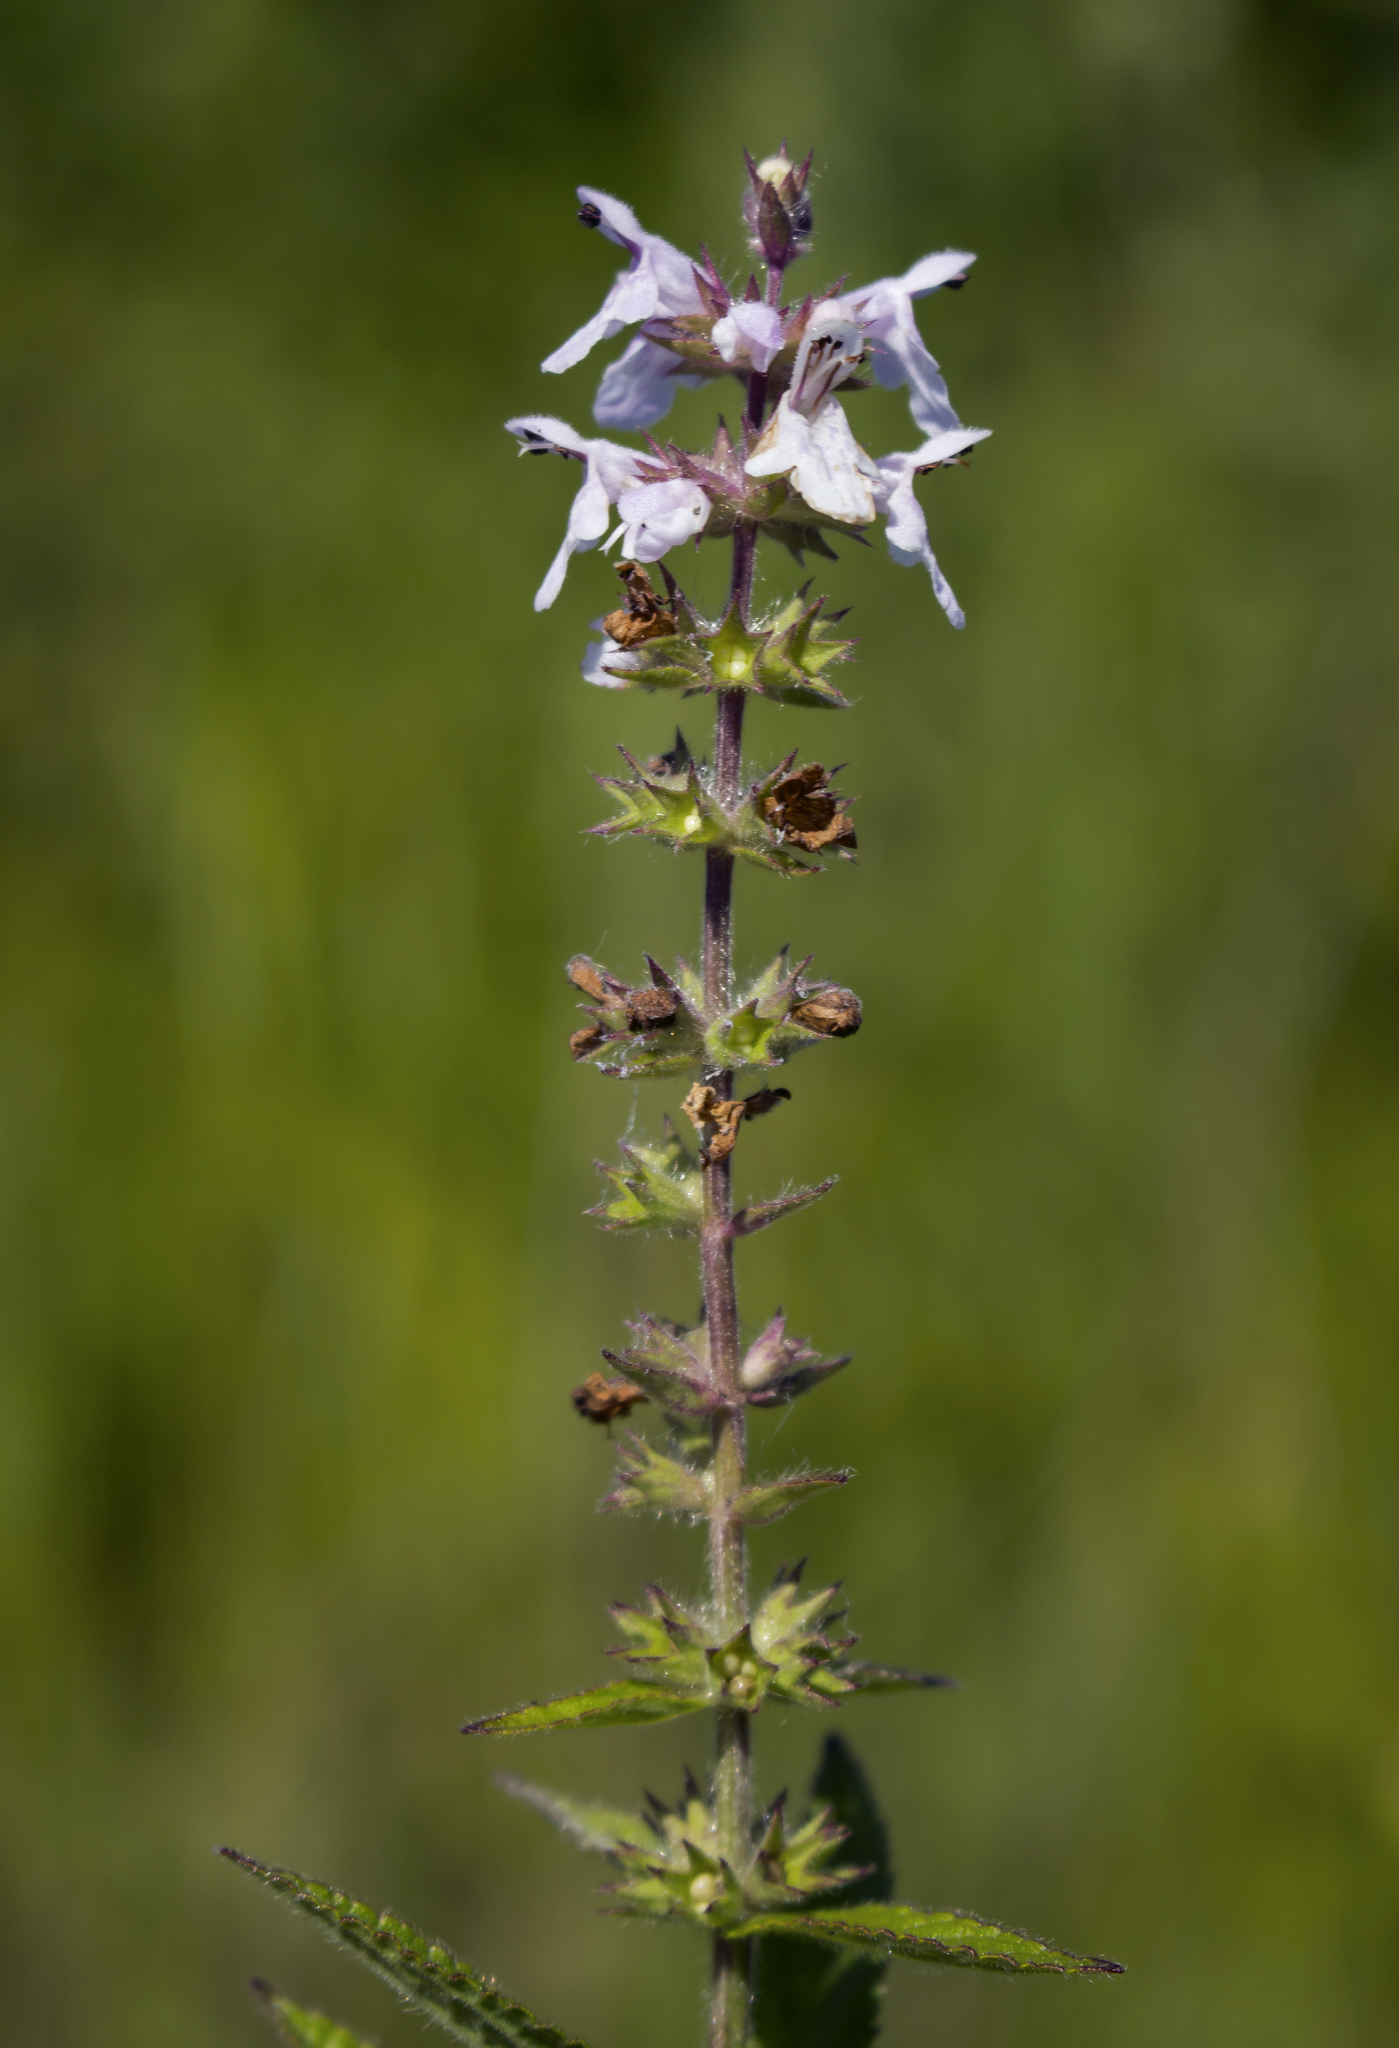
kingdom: Plantae
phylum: Tracheophyta
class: Magnoliopsida
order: Lamiales
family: Lamiaceae
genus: Stachys
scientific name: Stachys palustris
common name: Marsh woundwort
